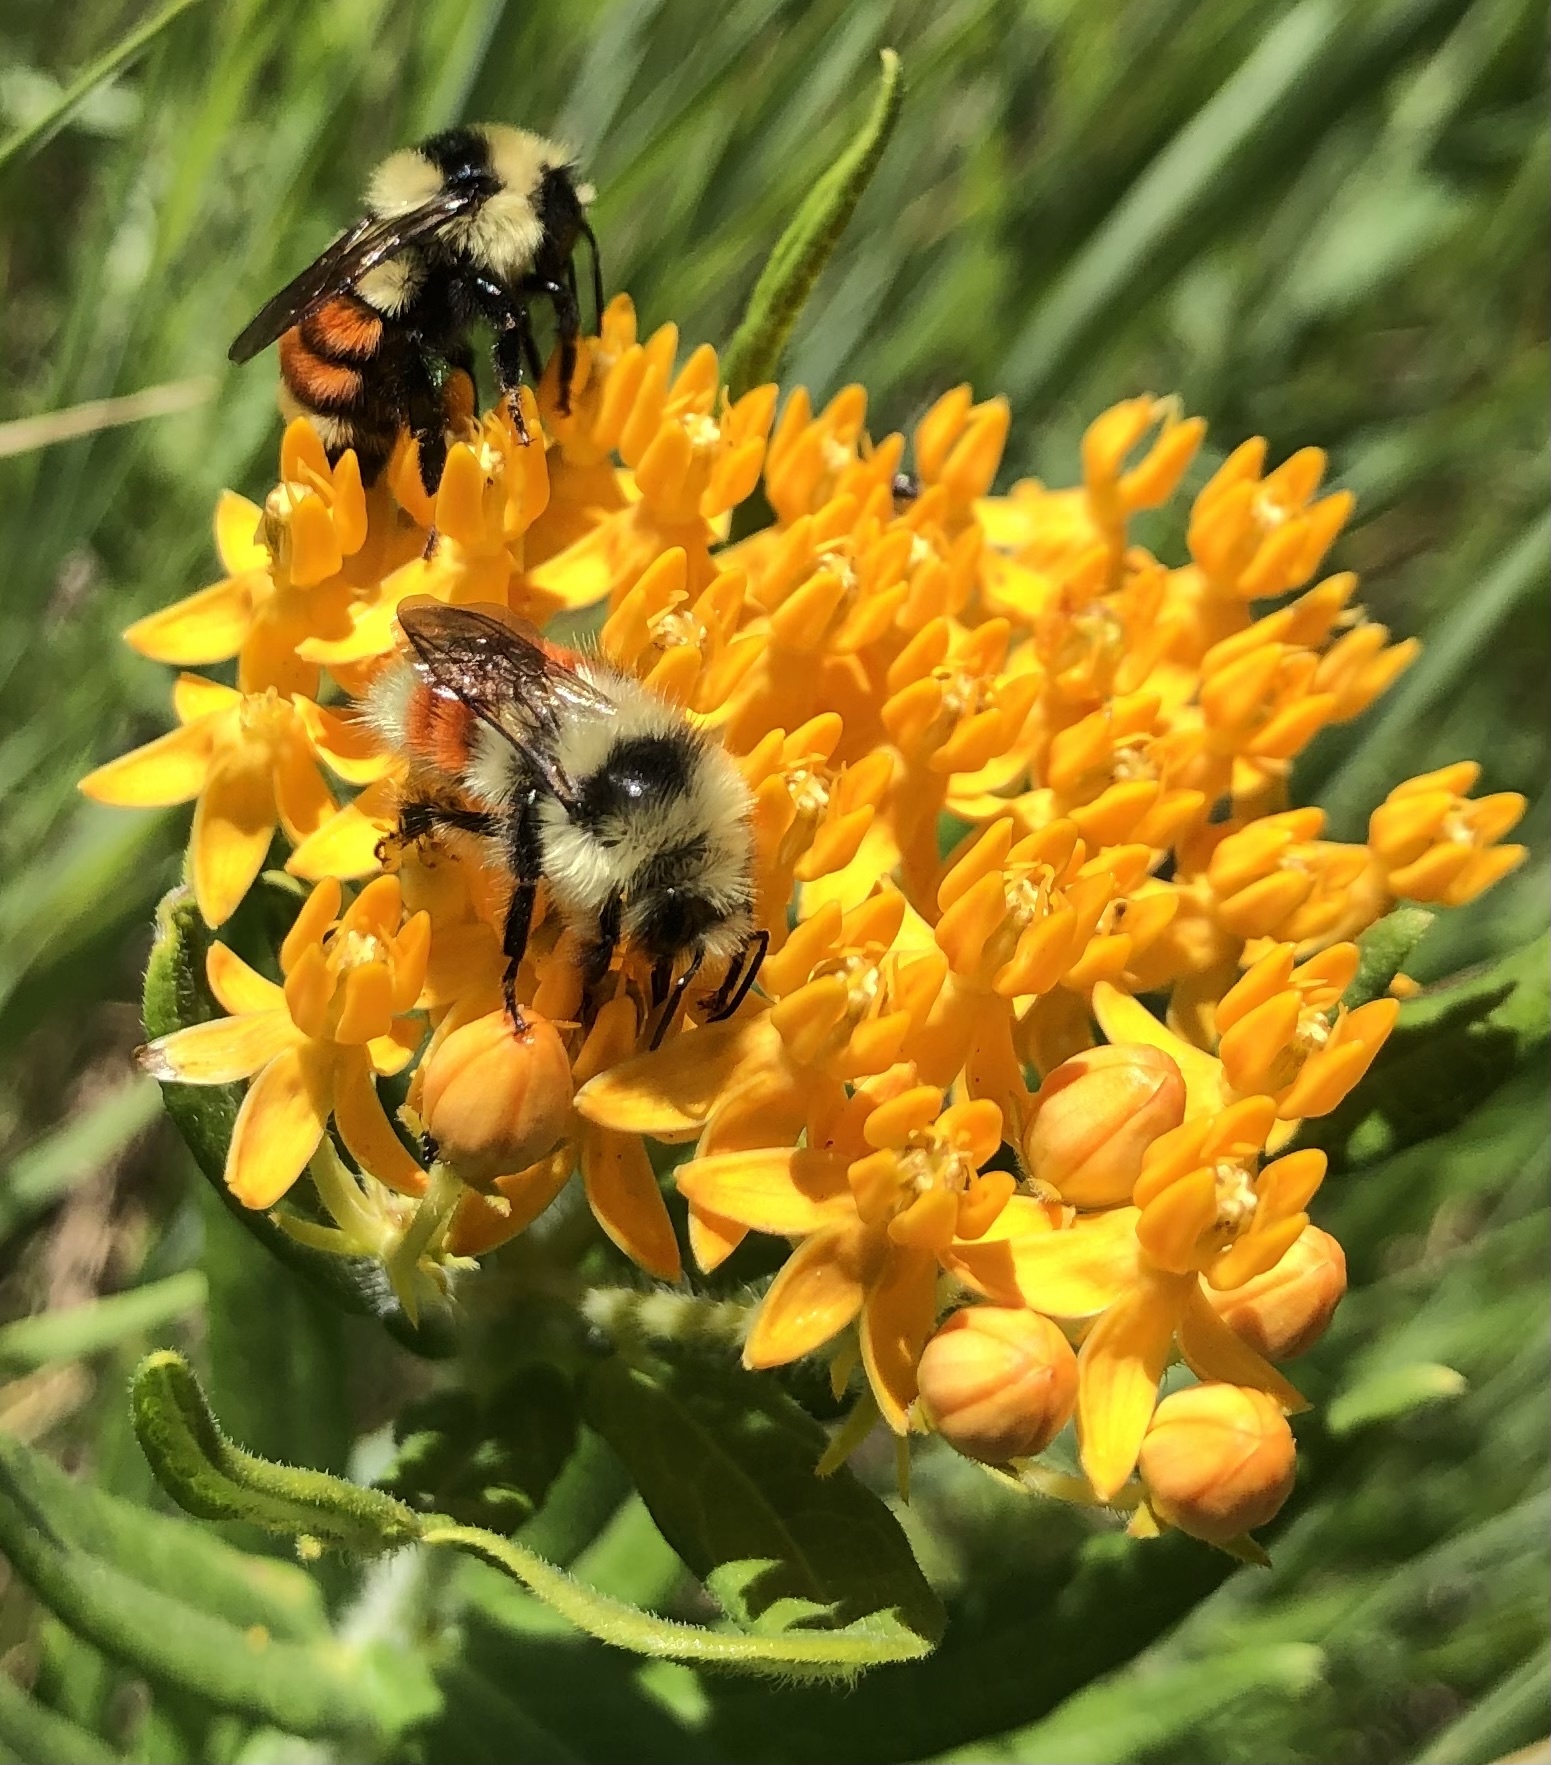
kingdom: Animalia
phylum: Arthropoda
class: Insecta
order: Hymenoptera
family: Apidae
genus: Bombus
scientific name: Bombus huntii
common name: Hunt bumble bee
